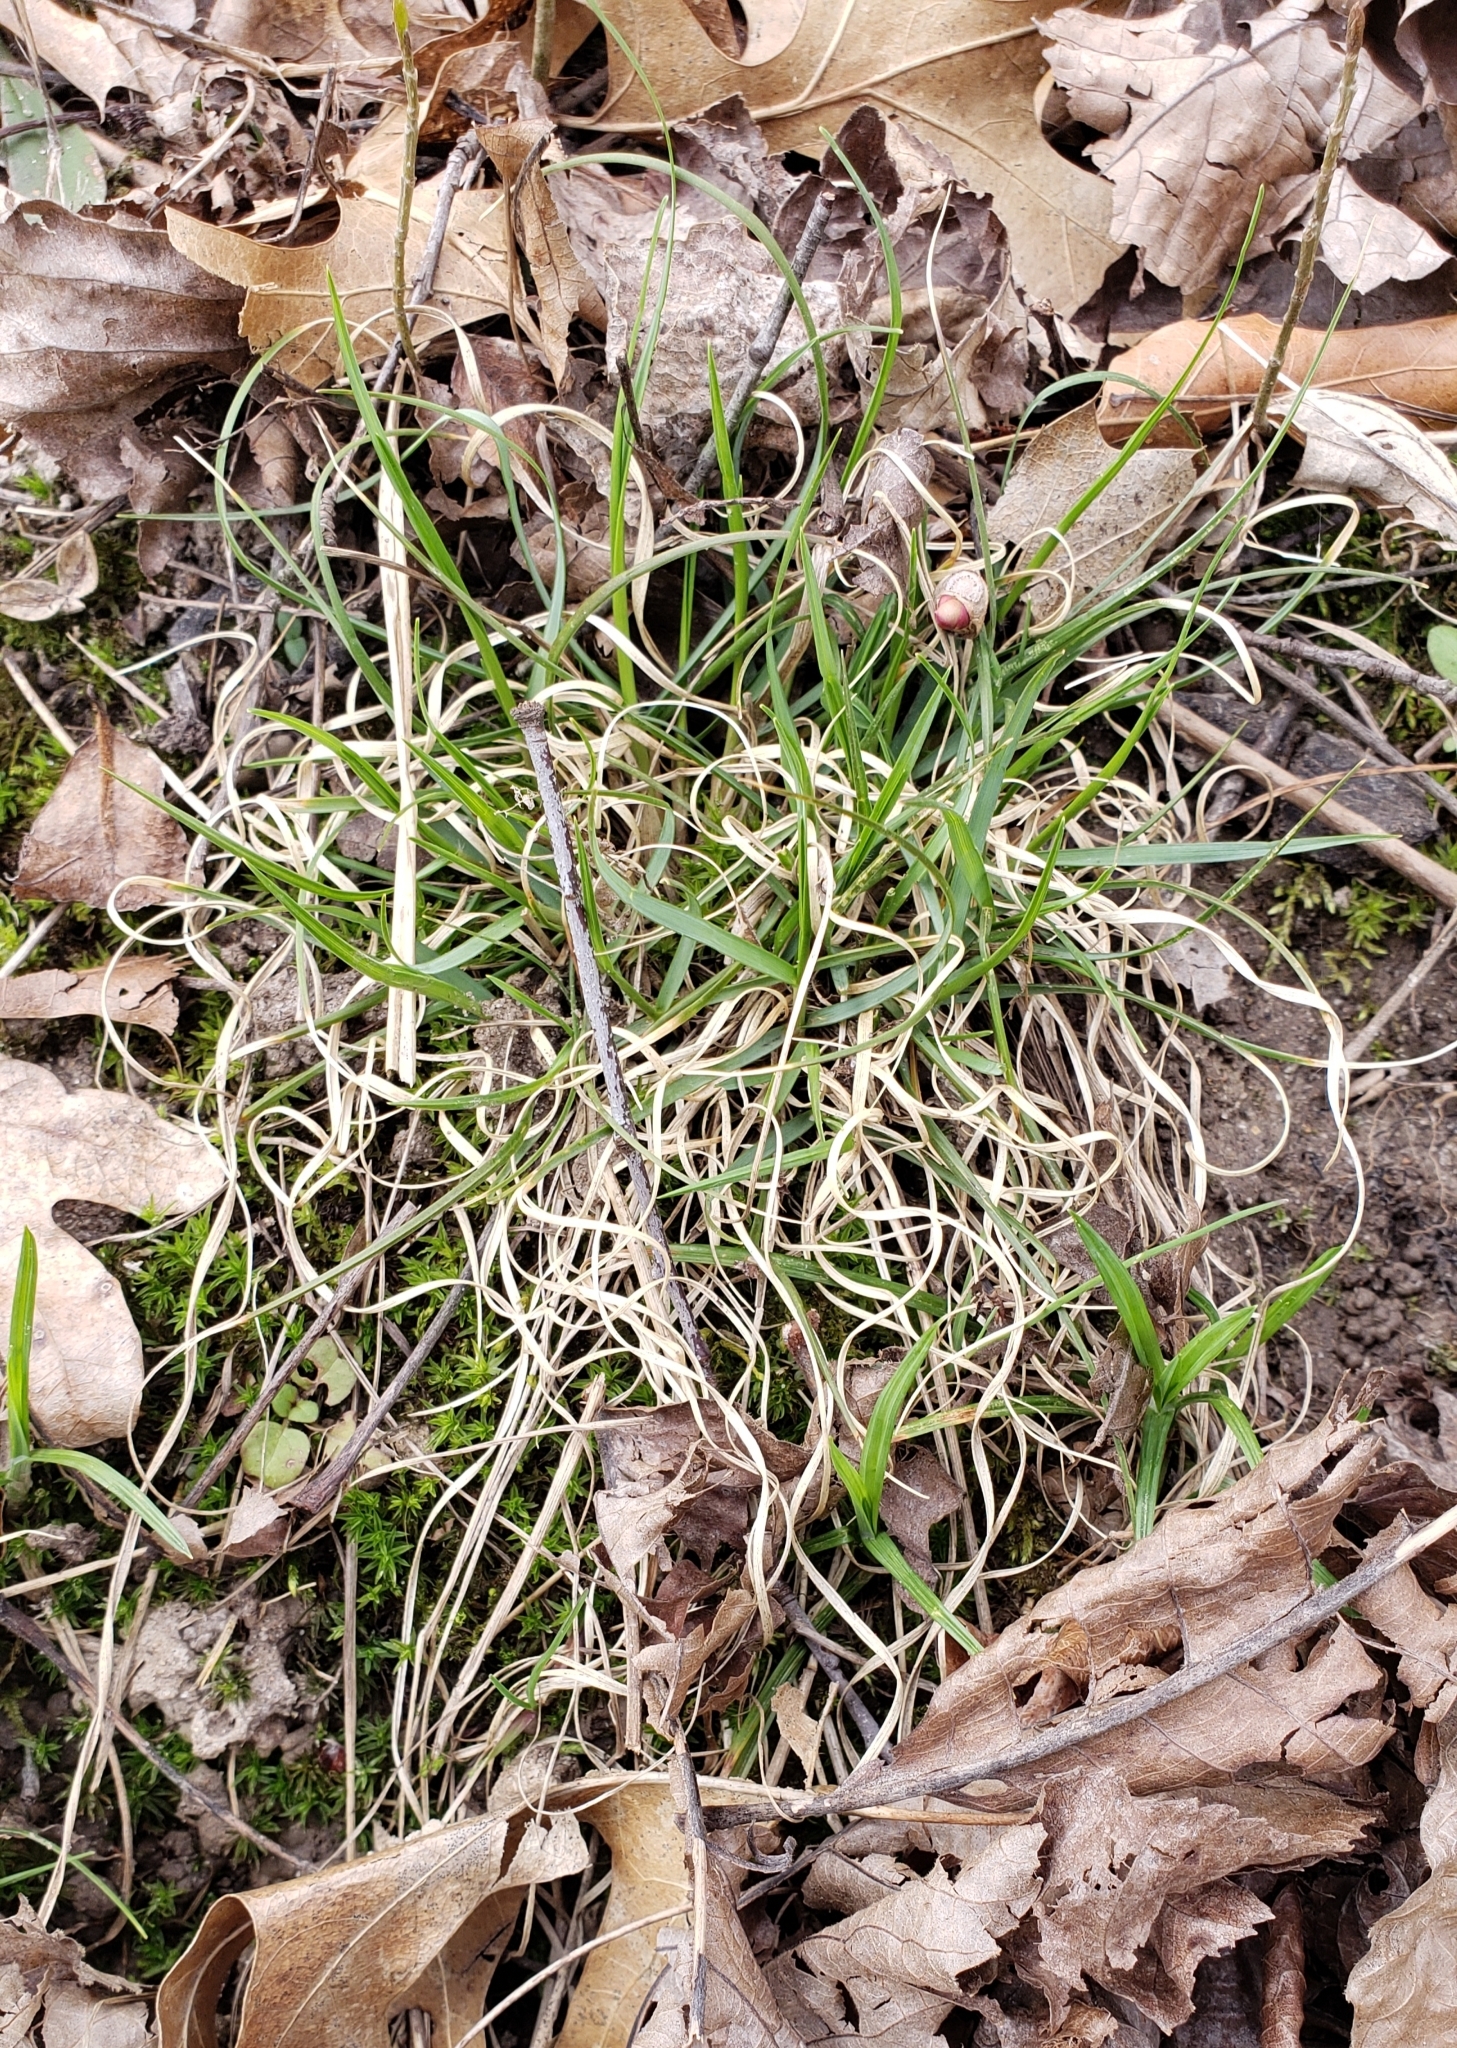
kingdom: Plantae
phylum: Tracheophyta
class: Liliopsida
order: Poales
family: Poaceae
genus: Danthonia
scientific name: Danthonia spicata
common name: Common wild oatgrass
